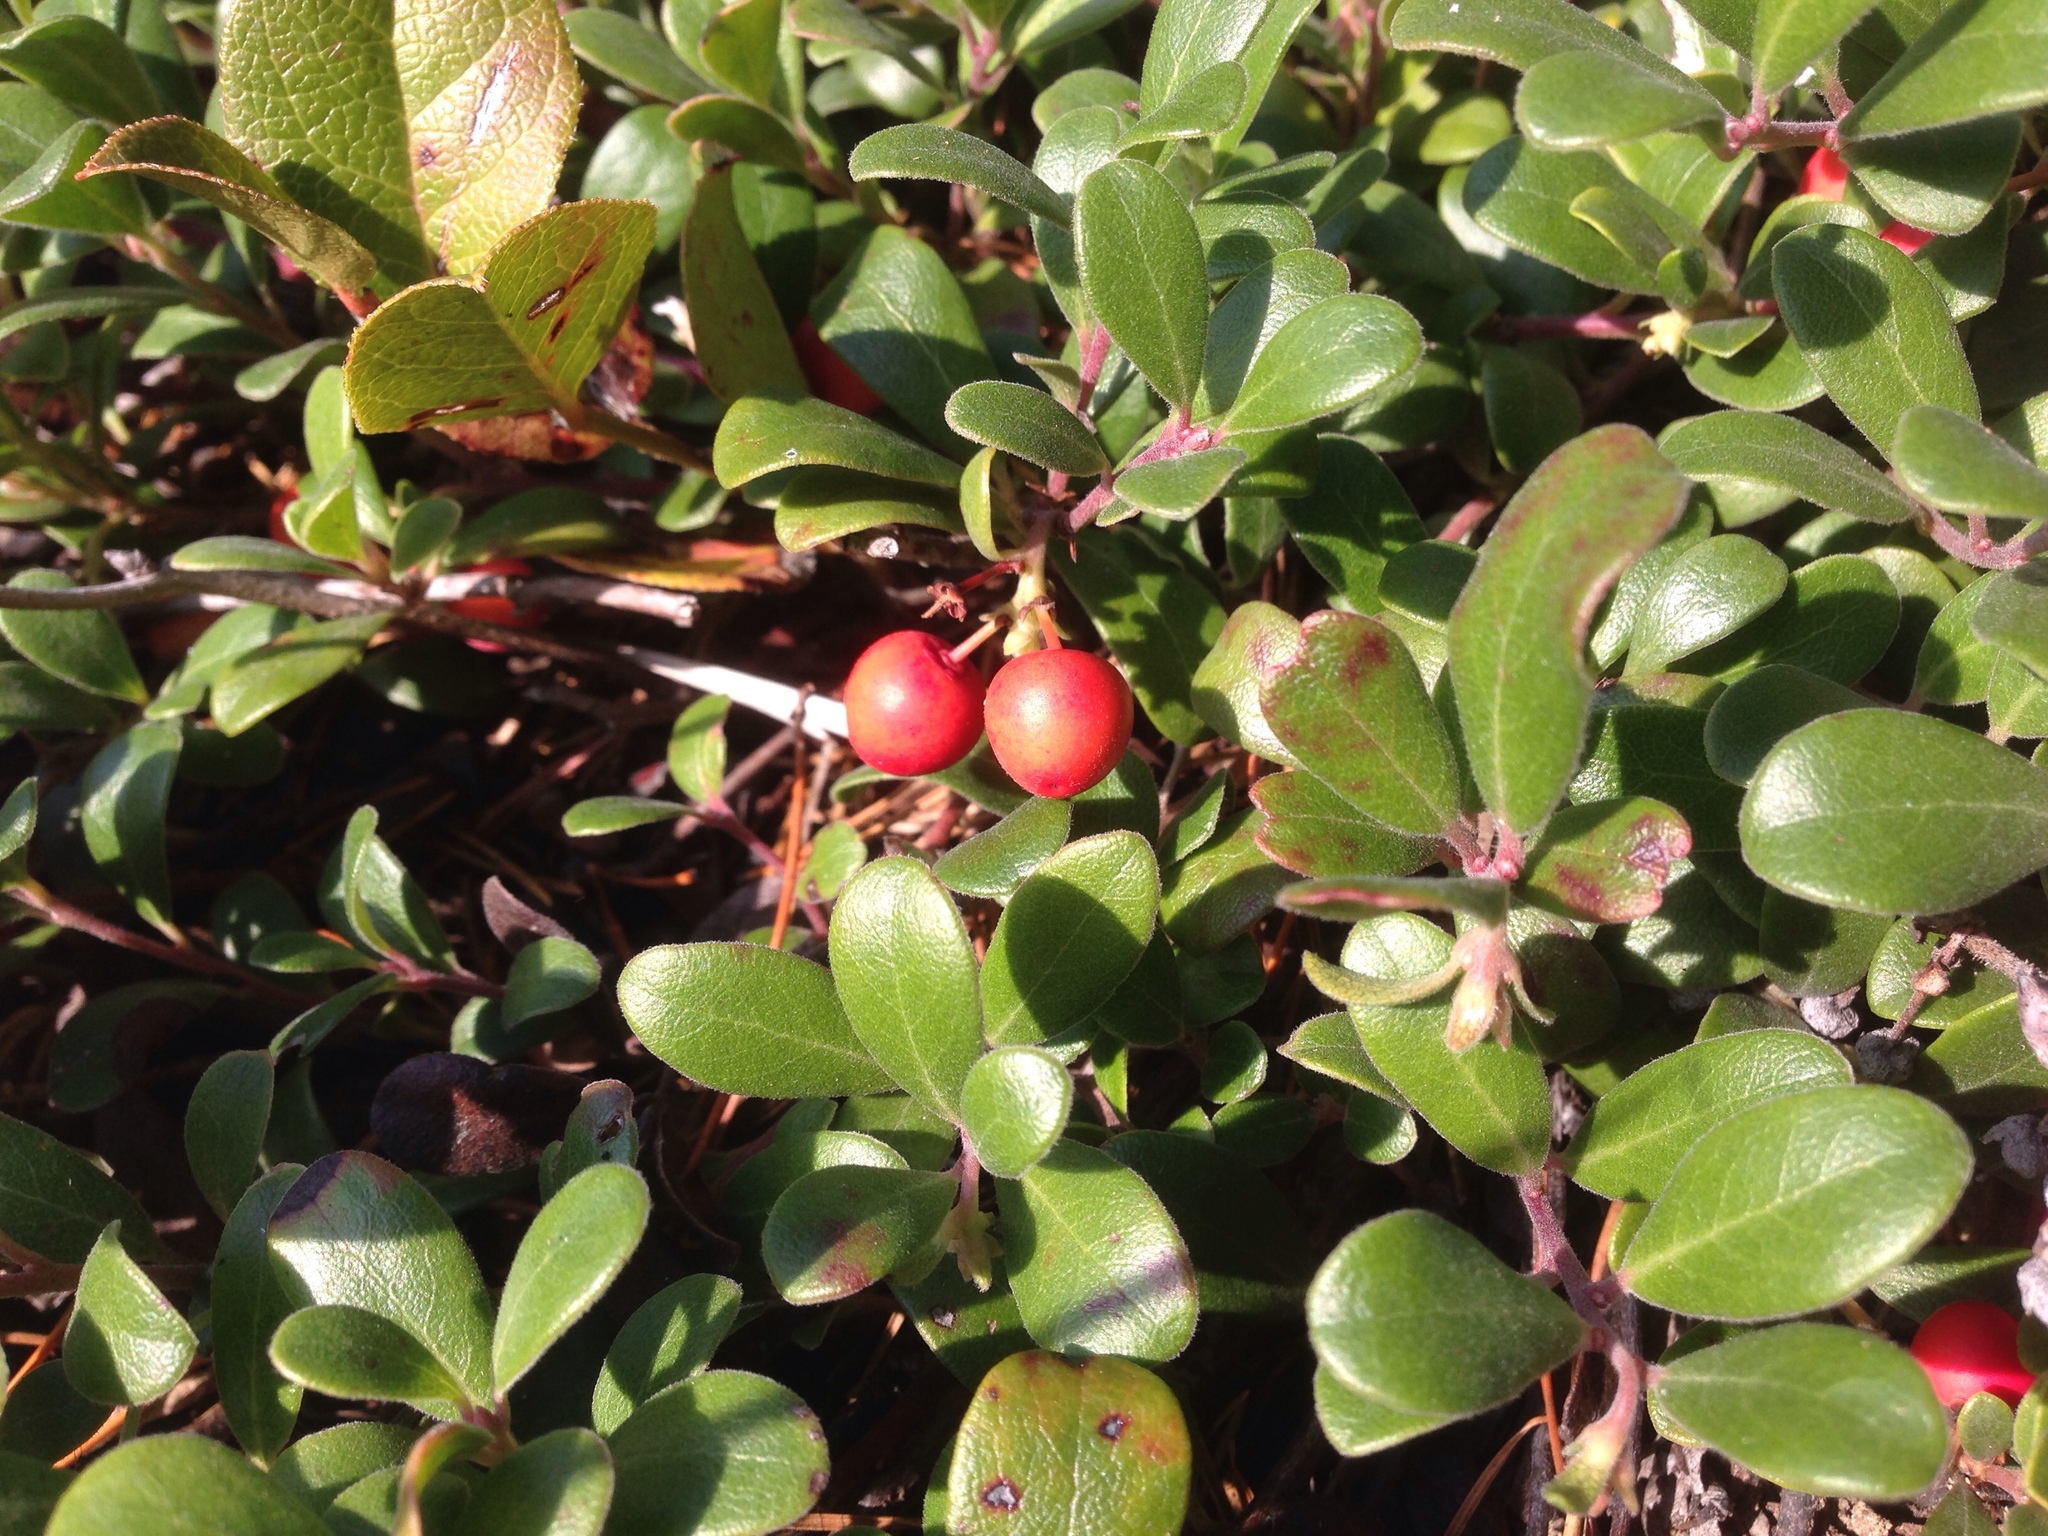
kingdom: Plantae
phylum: Tracheophyta
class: Magnoliopsida
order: Ericales
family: Ericaceae
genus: Arctostaphylos
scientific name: Arctostaphylos uva-ursi
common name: Bearberry
